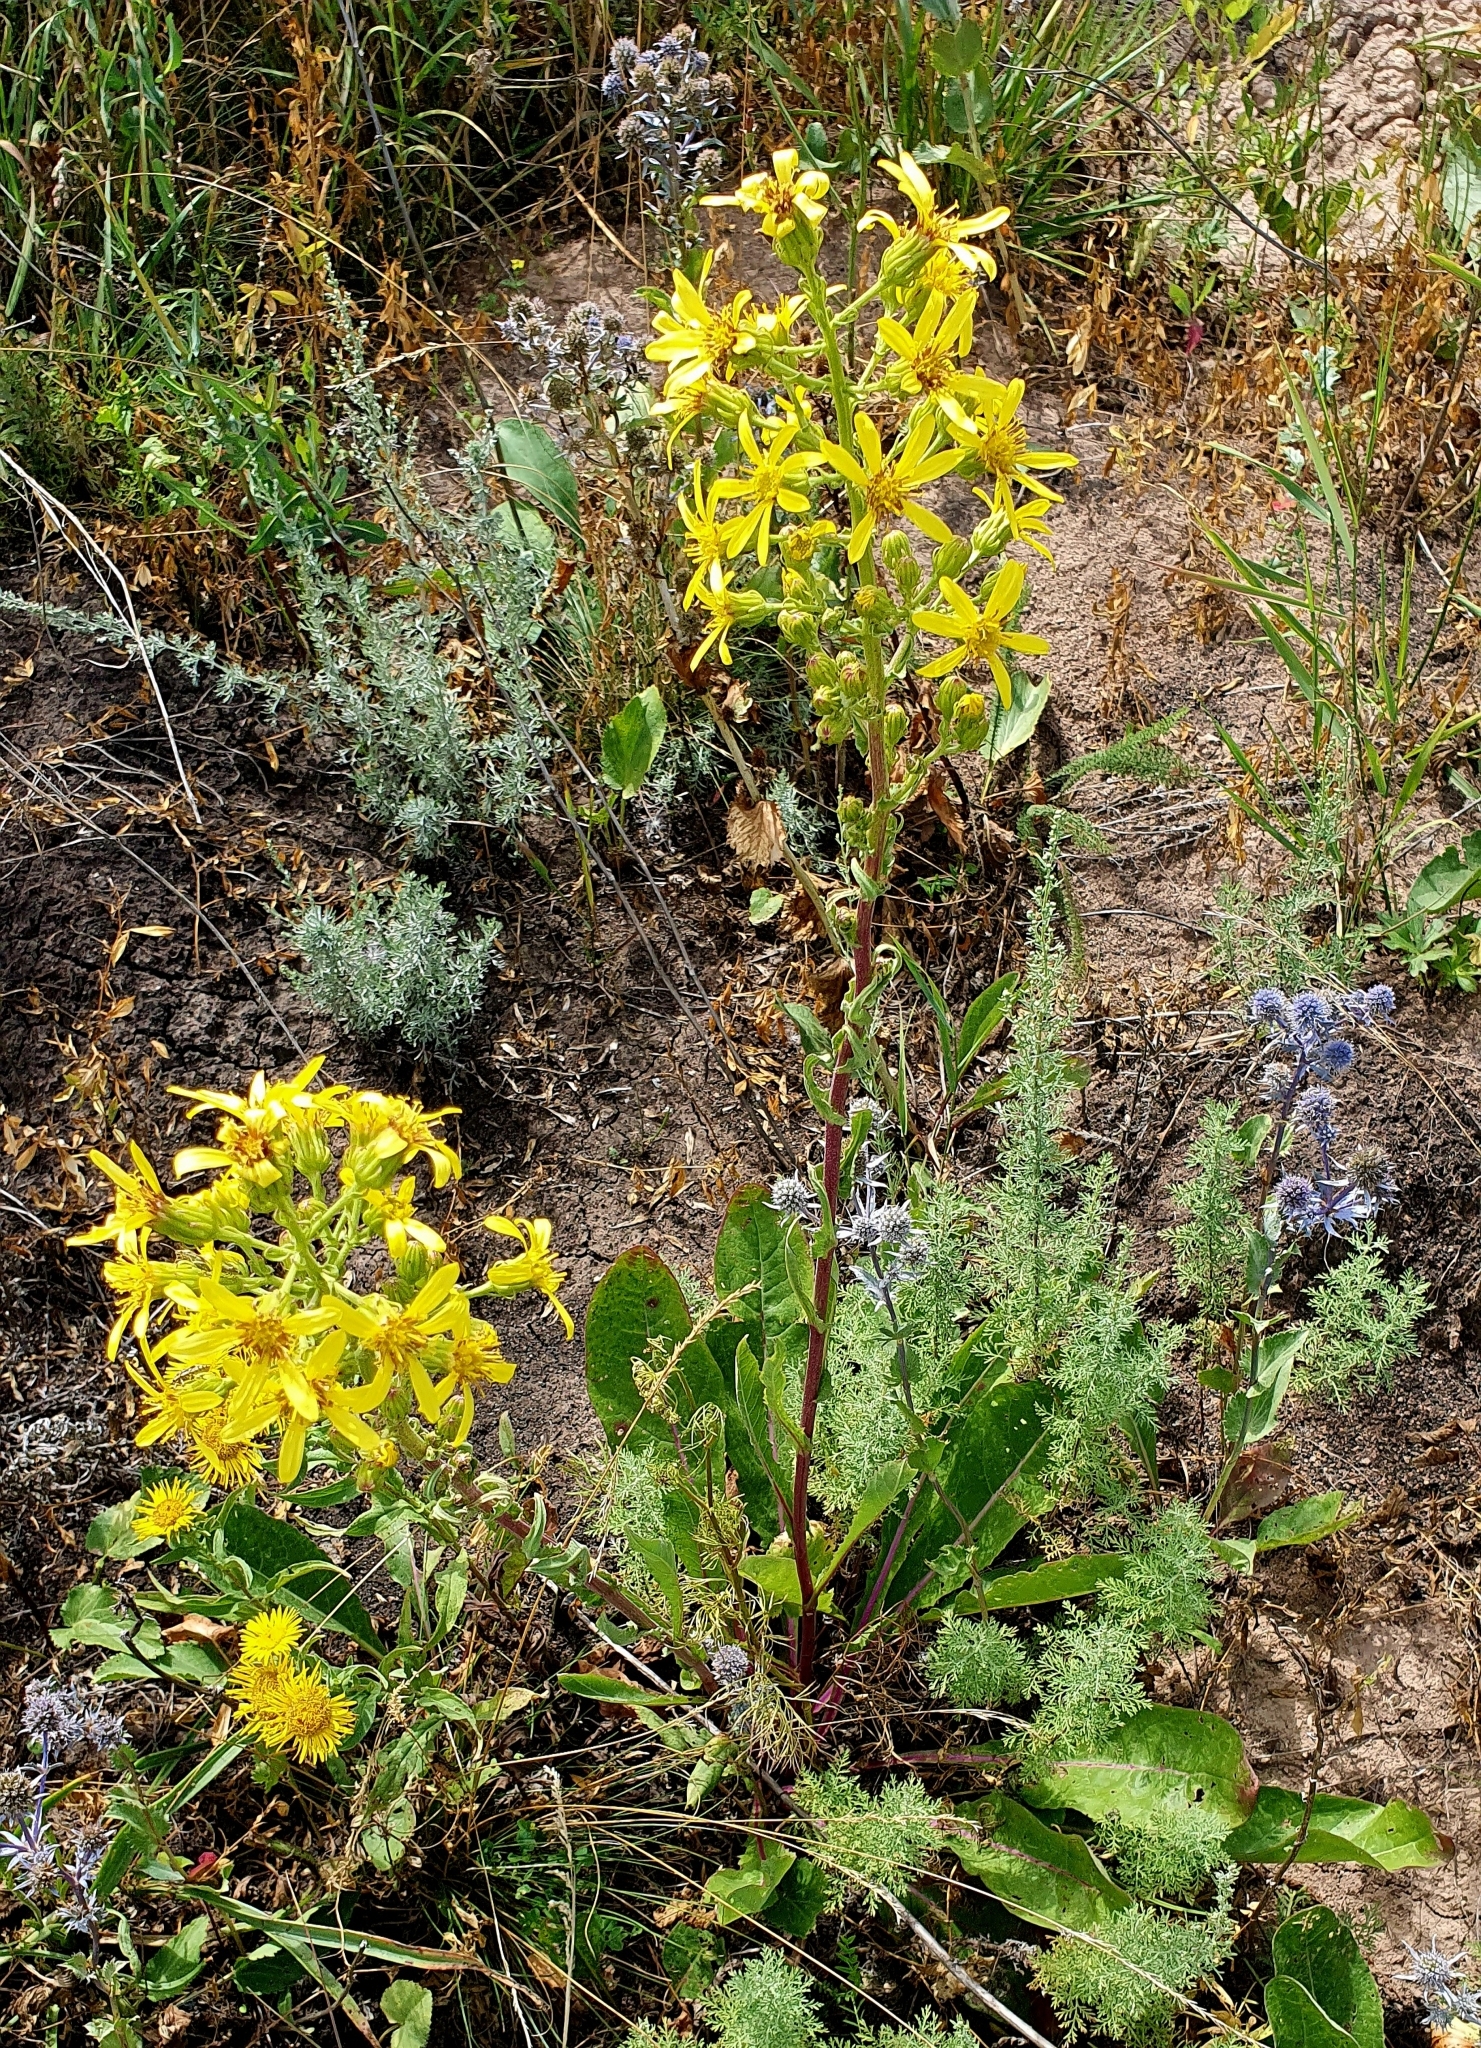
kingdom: Plantae
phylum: Tracheophyta
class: Magnoliopsida
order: Asterales
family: Asteraceae
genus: Jacobaea
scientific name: Jacobaea vulgaris
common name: Stinking willie
